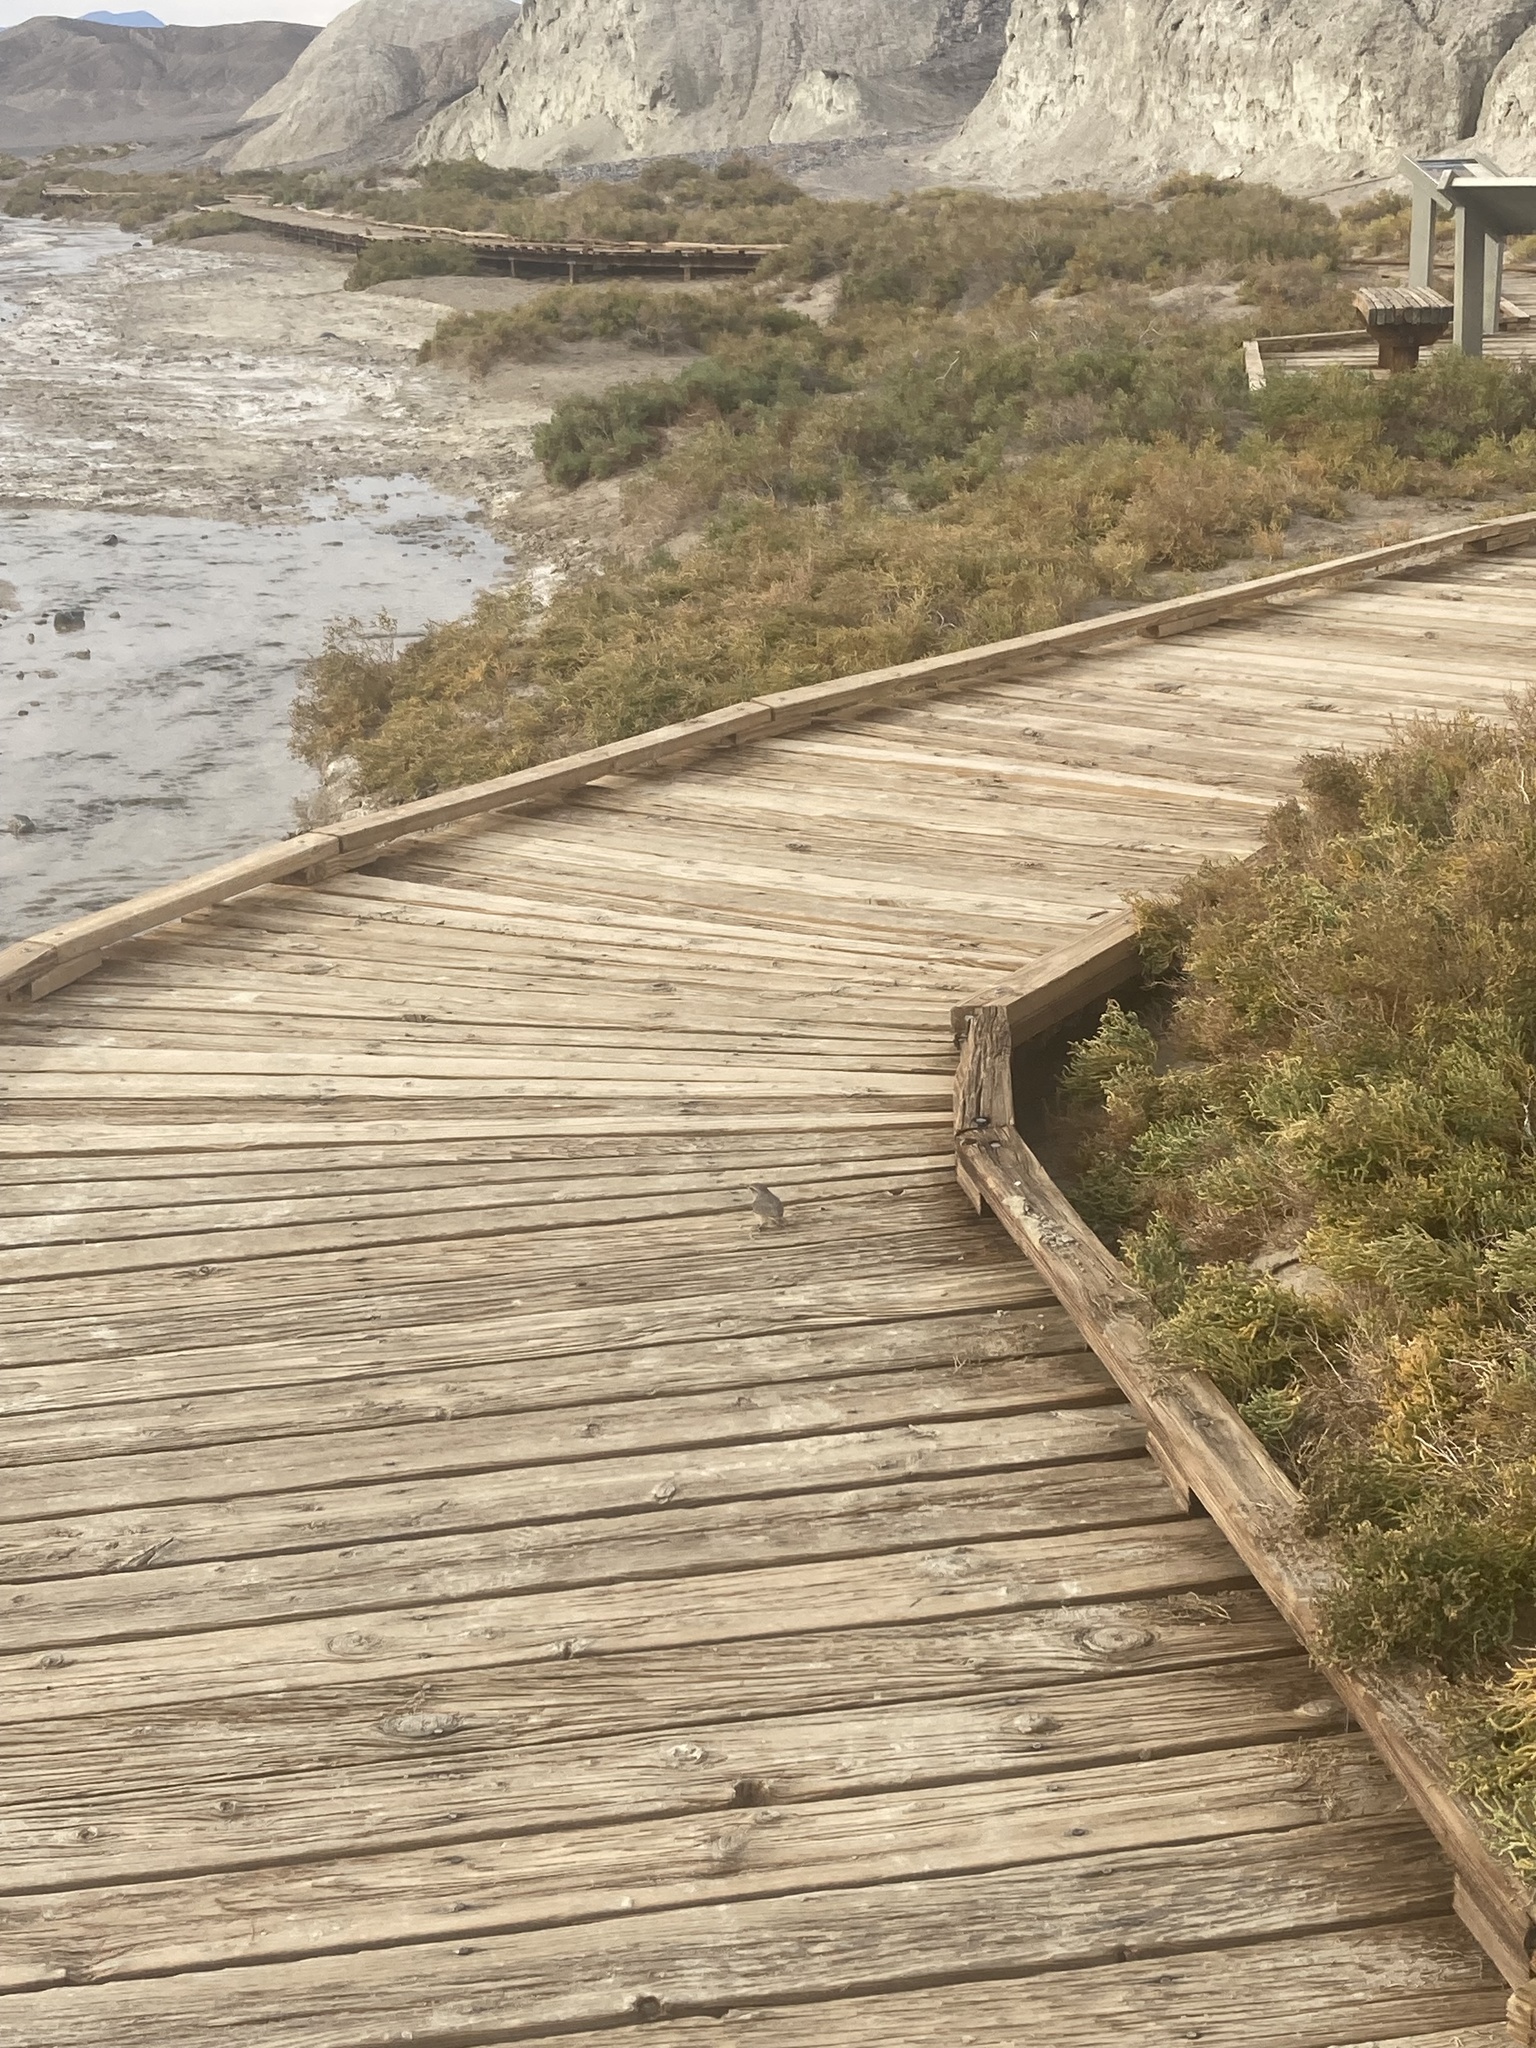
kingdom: Animalia
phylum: Chordata
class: Aves
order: Passeriformes
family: Troglodytidae
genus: Salpinctes
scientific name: Salpinctes obsoletus
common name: Rock wren
